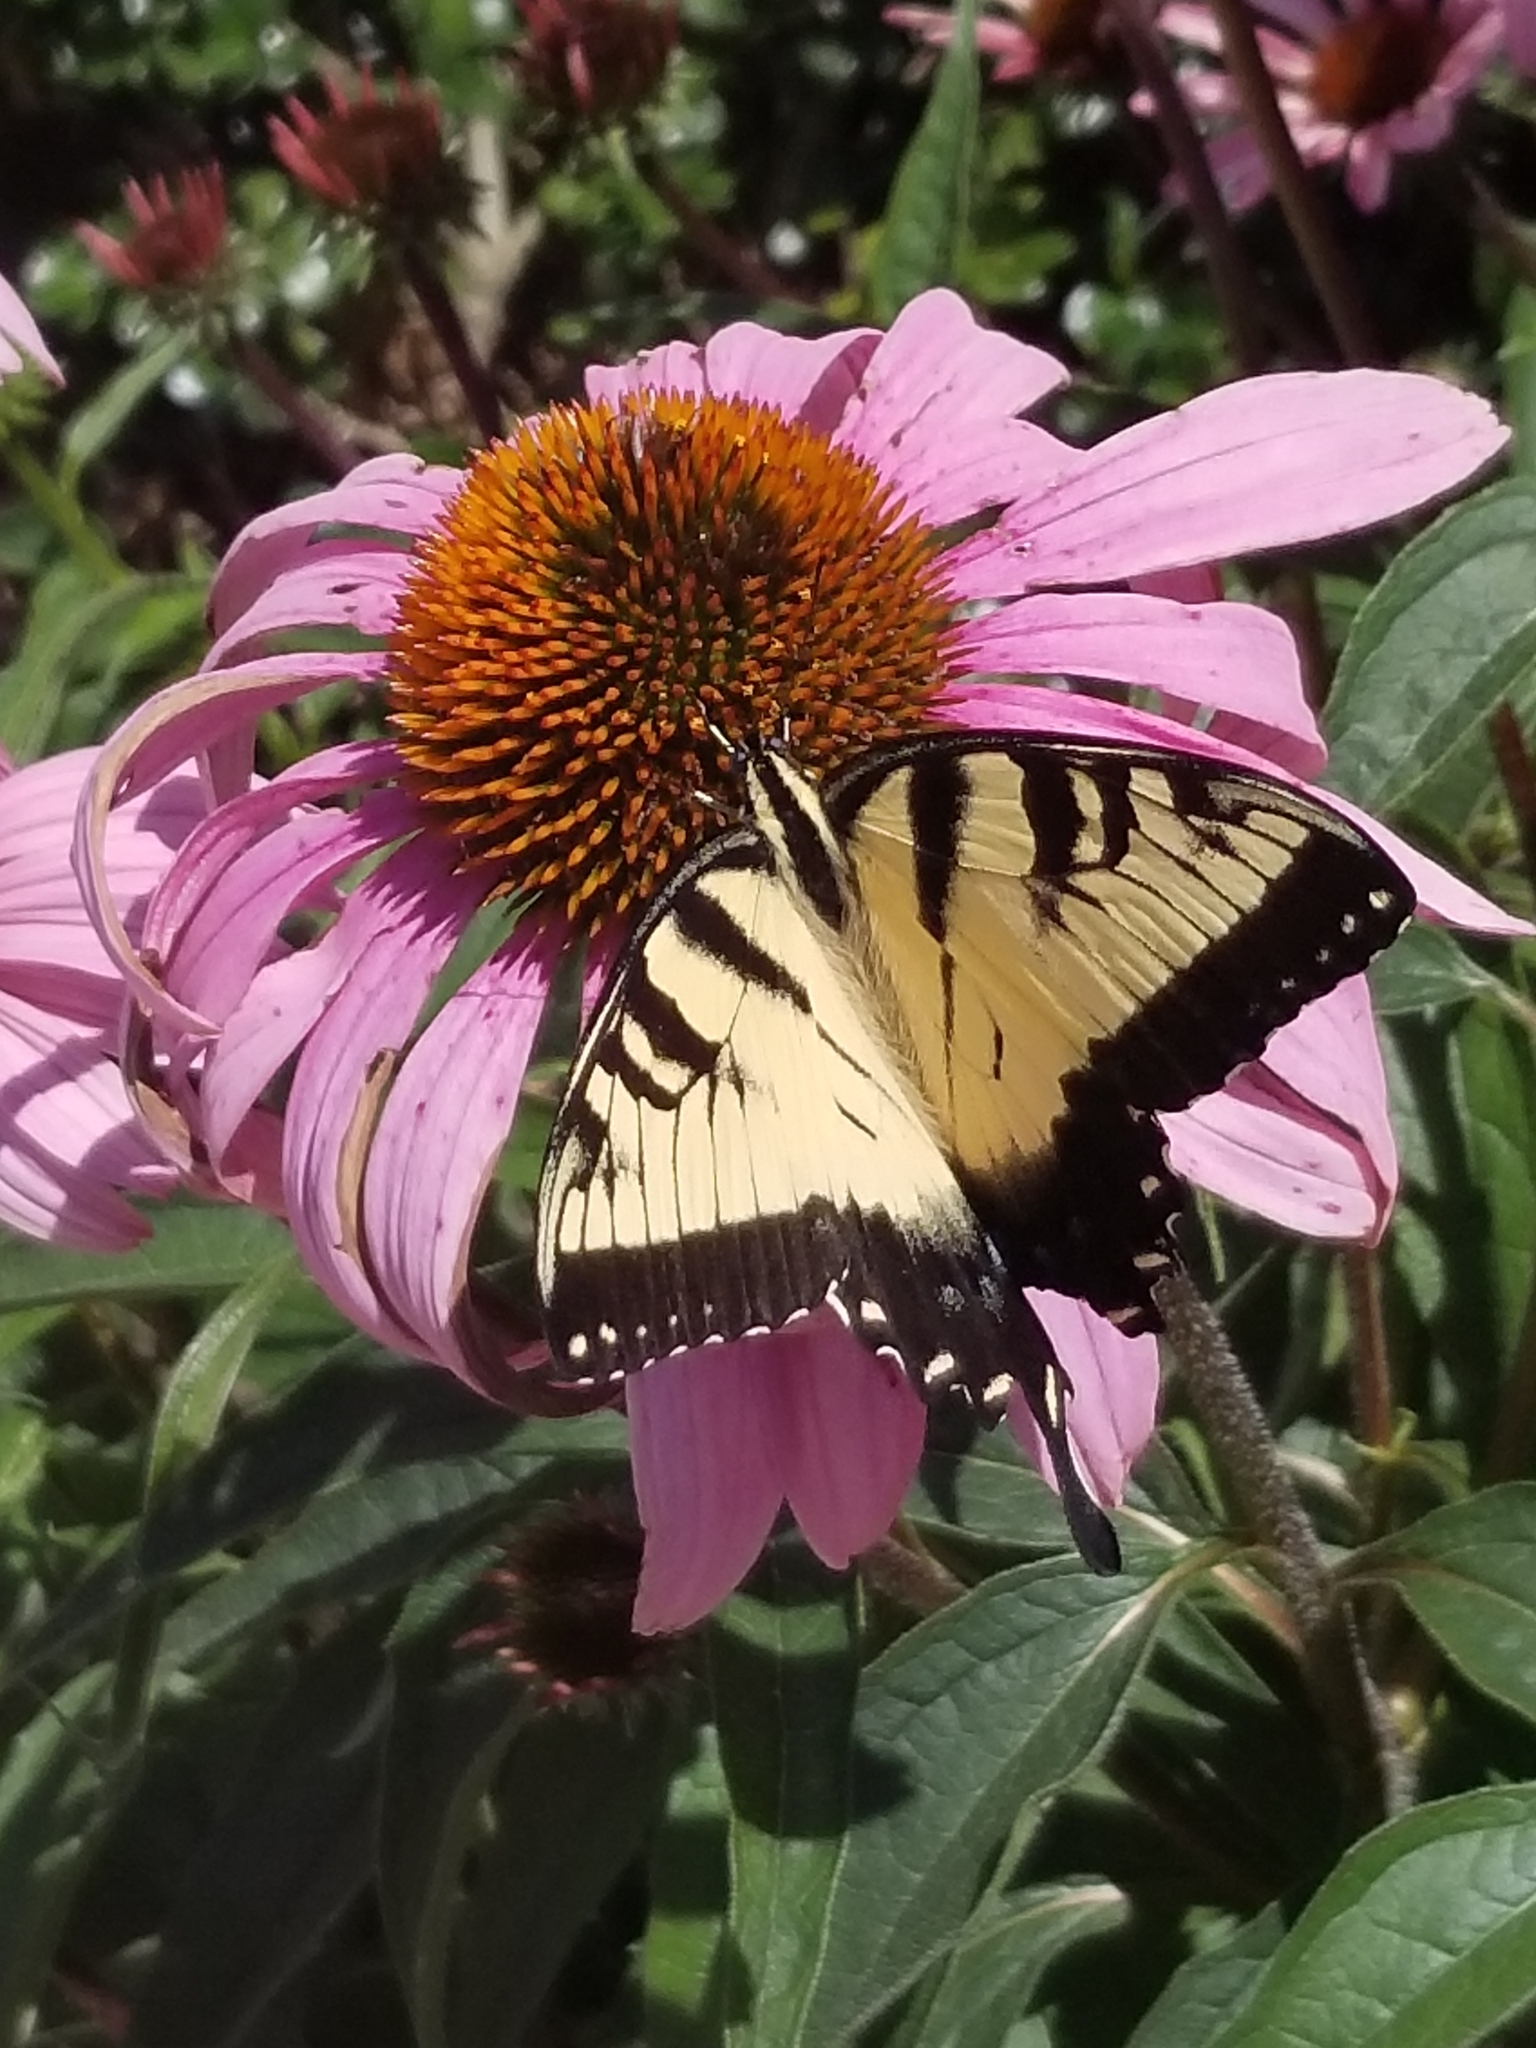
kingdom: Animalia
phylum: Arthropoda
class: Insecta
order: Lepidoptera
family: Papilionidae
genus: Papilio
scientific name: Papilio glaucus
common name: Tiger swallowtail
